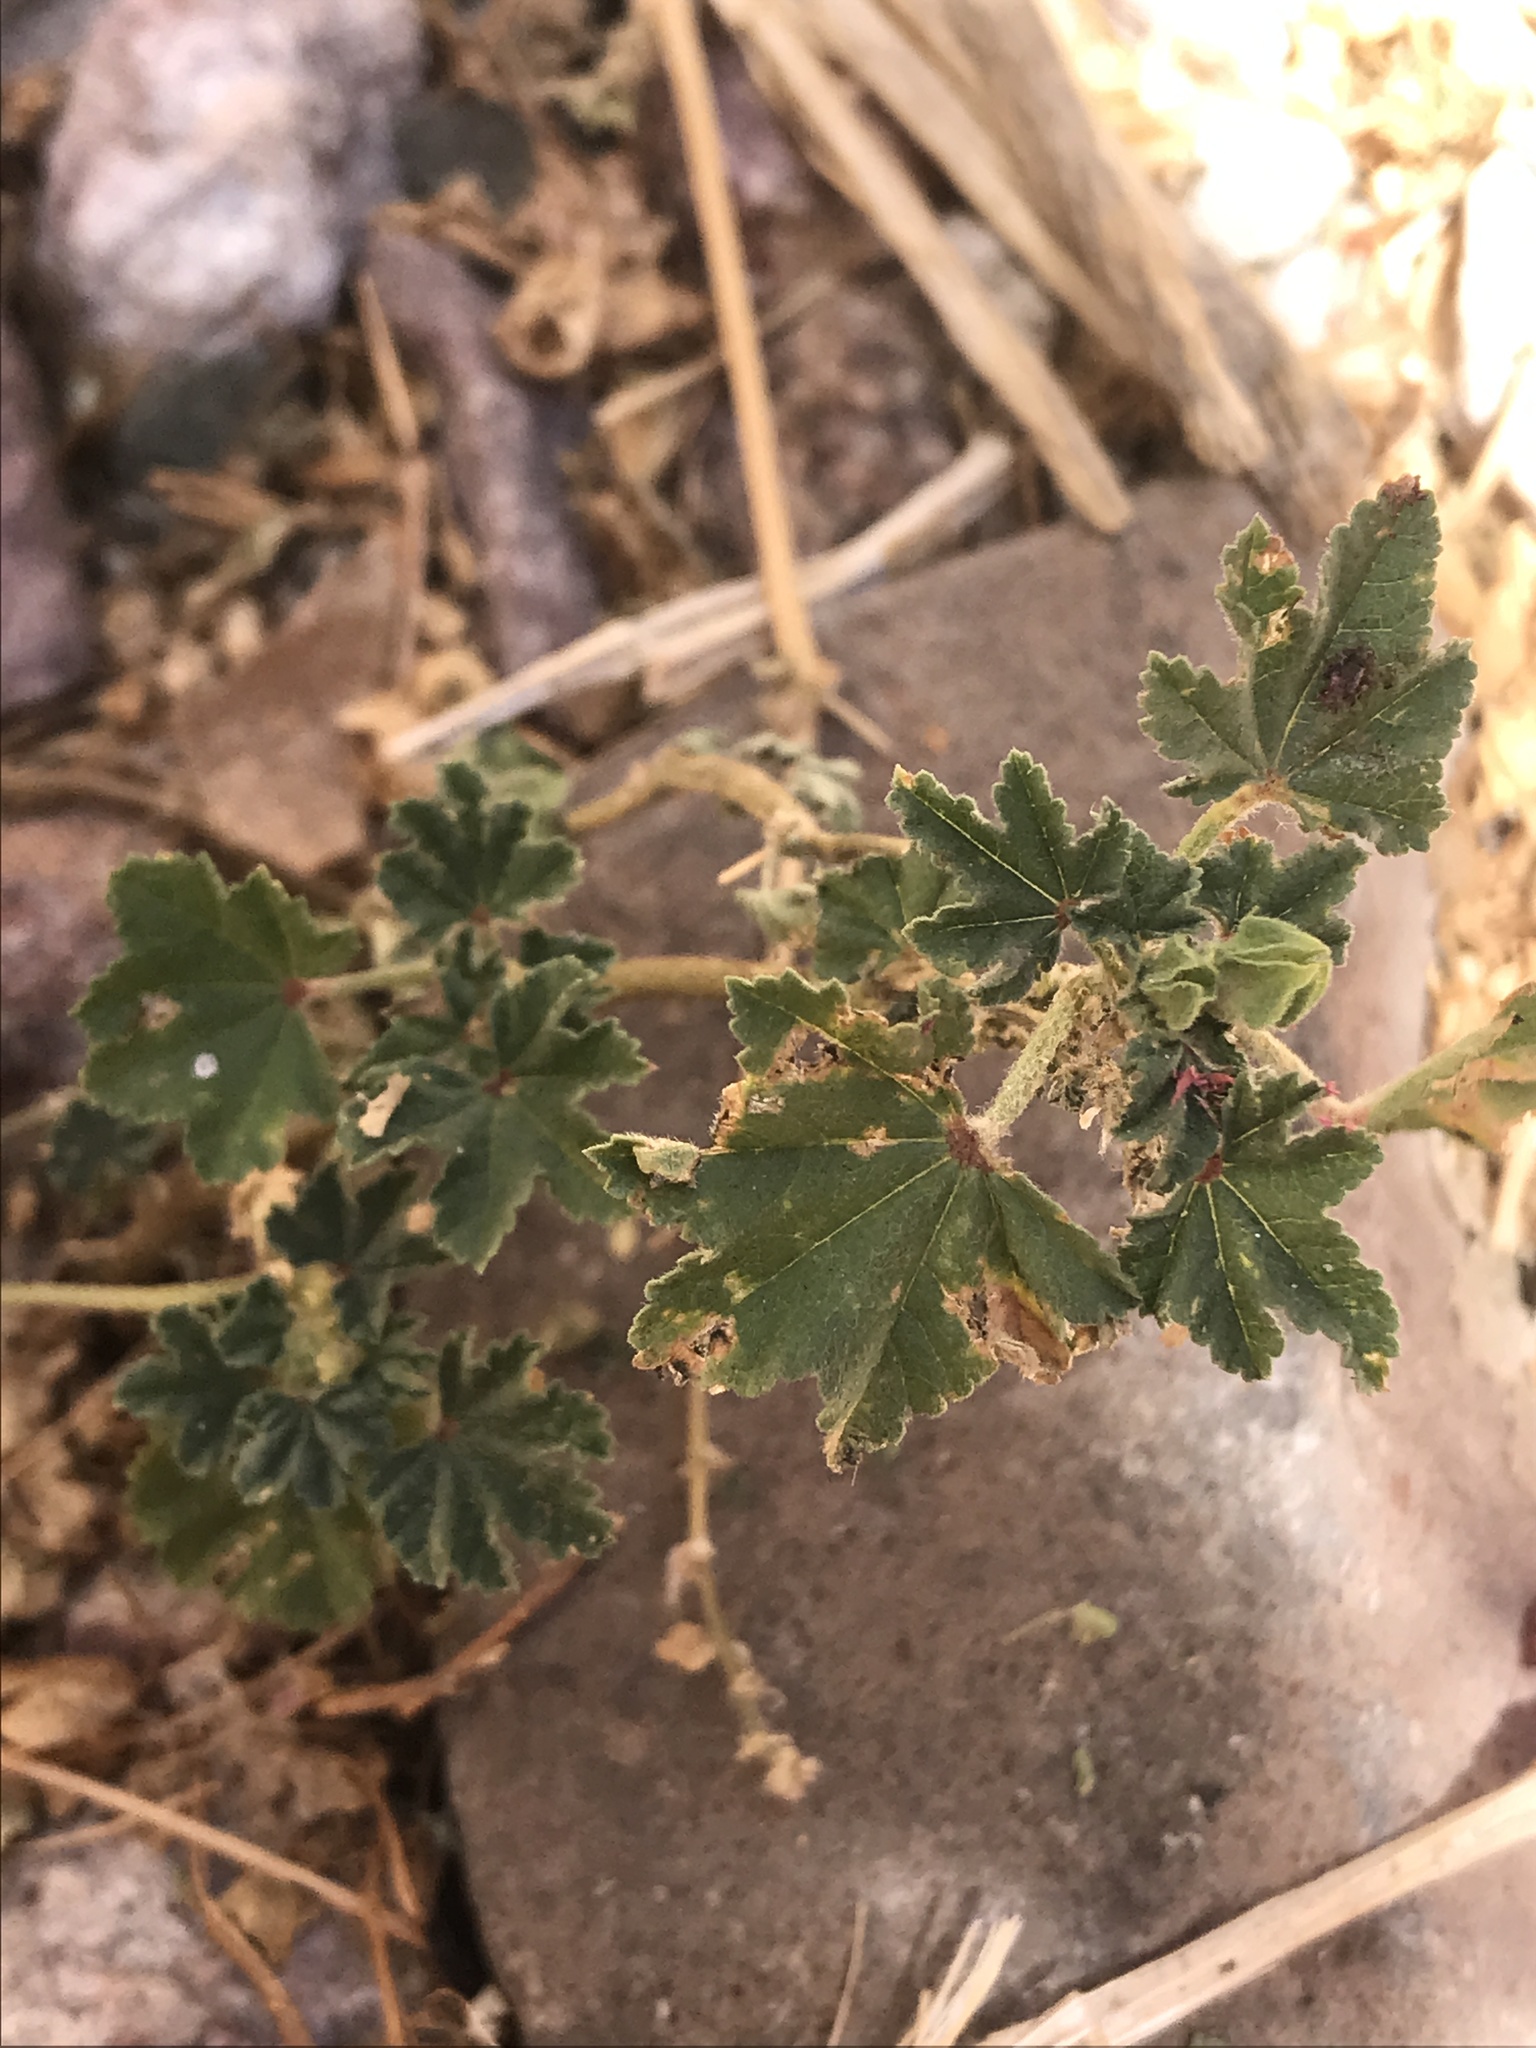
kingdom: Plantae
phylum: Tracheophyta
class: Magnoliopsida
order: Malvales
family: Malvaceae
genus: Malva
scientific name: Malva parviflora
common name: Least mallow
